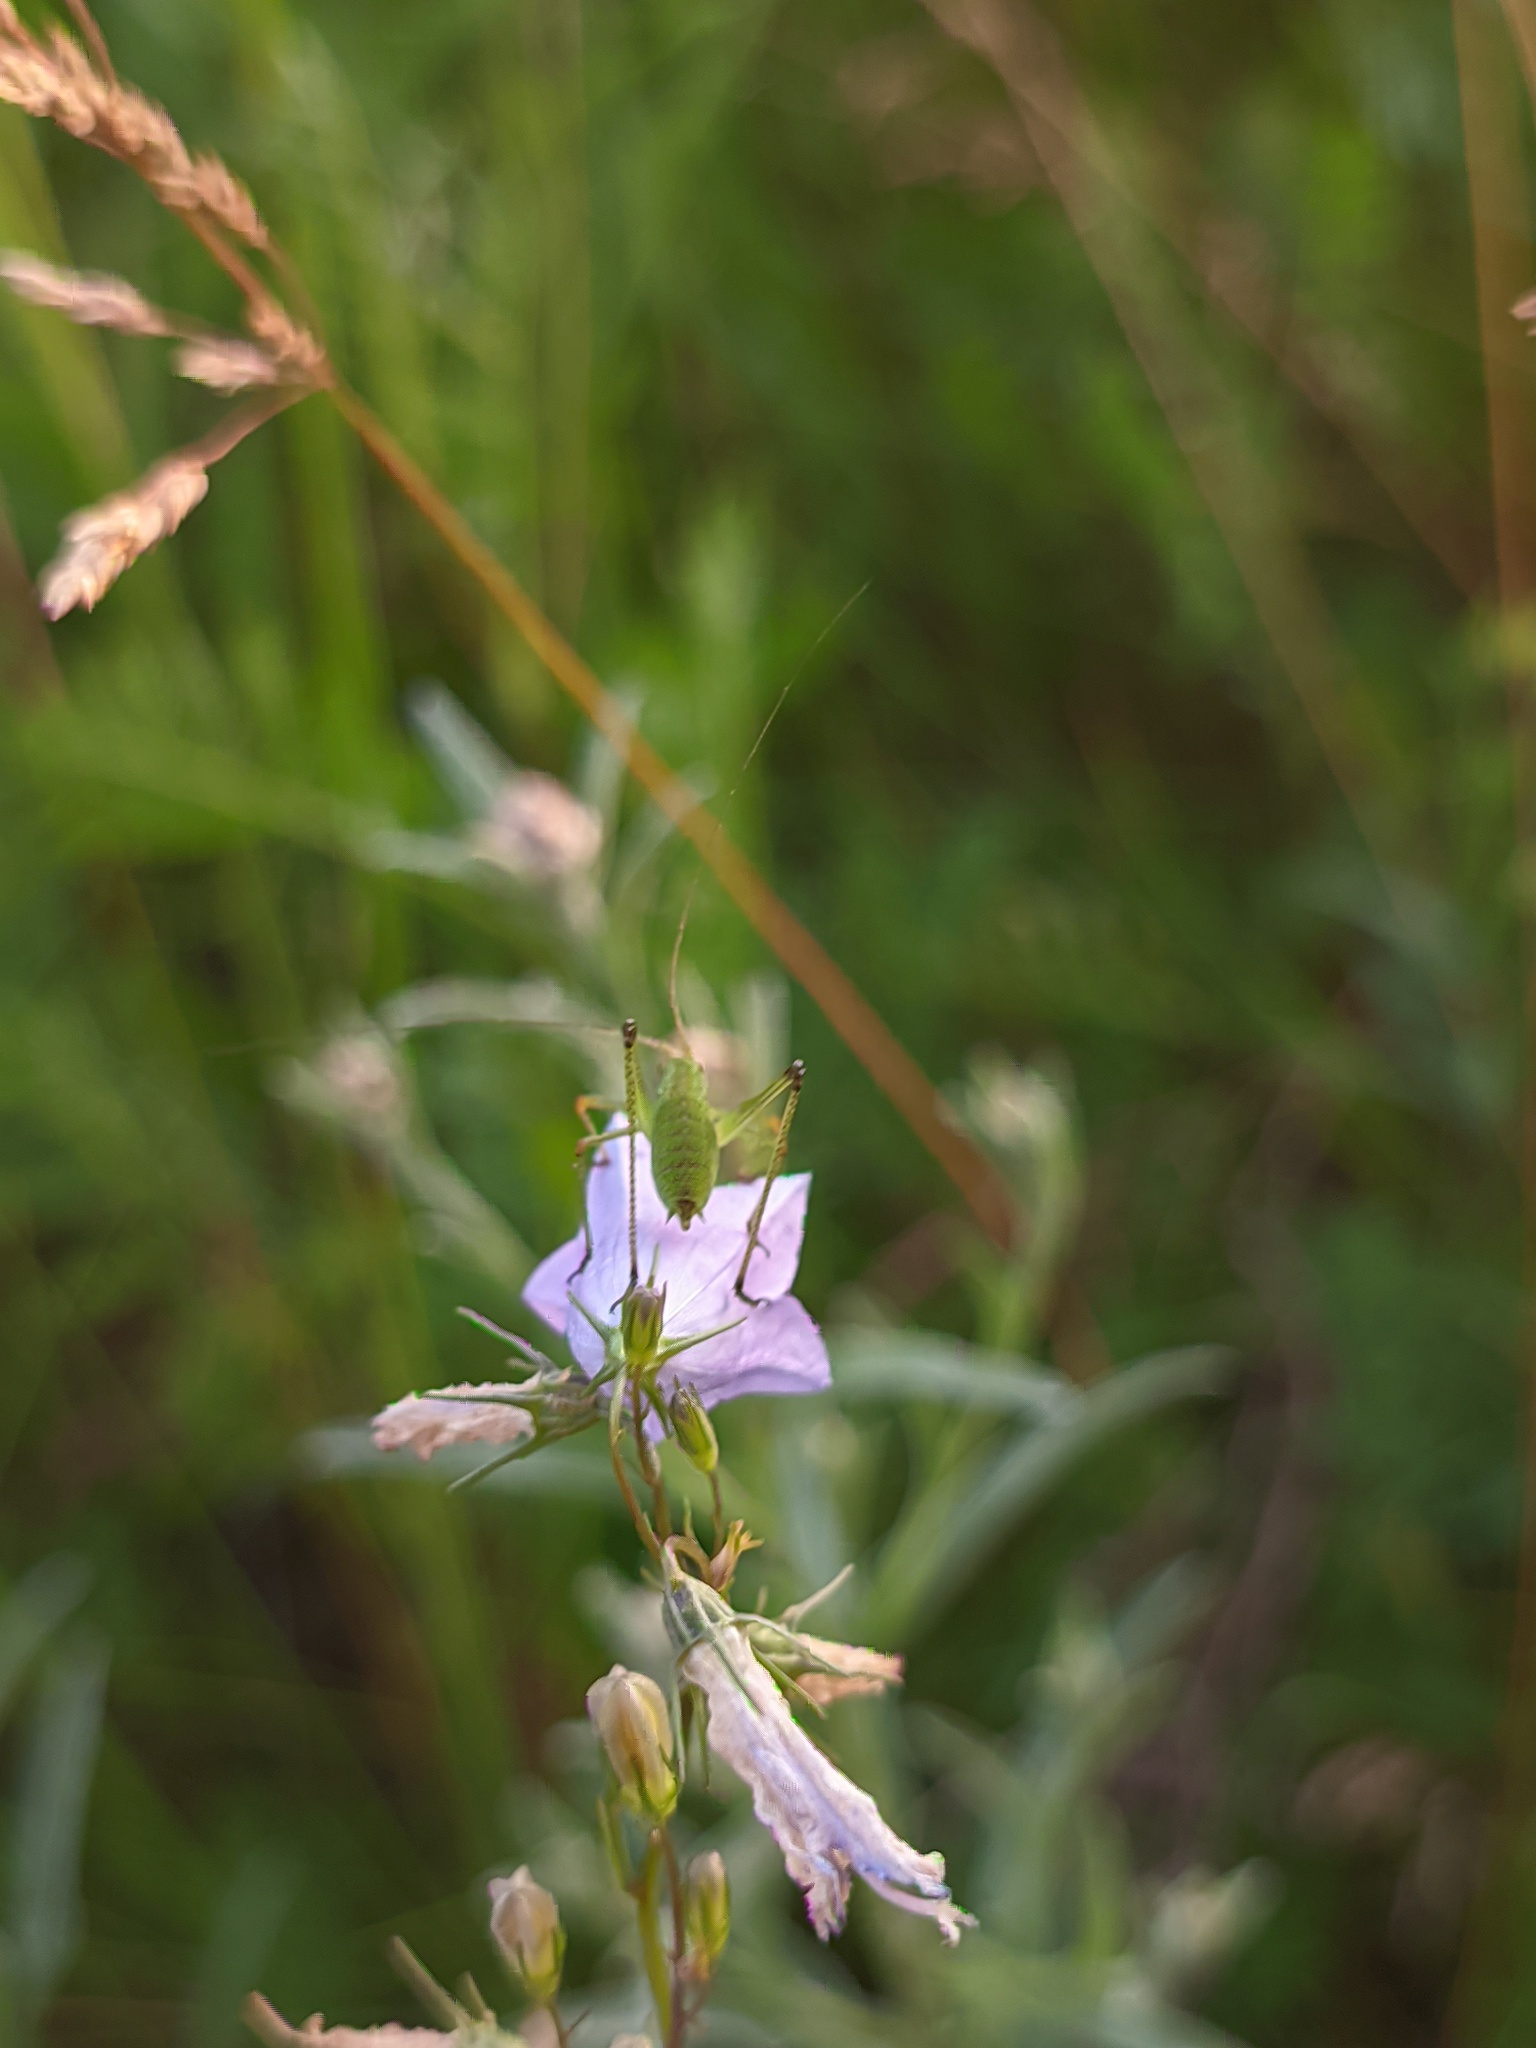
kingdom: Animalia
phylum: Arthropoda
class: Insecta
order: Orthoptera
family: Tettigoniidae
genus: Phaneroptera
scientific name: Phaneroptera falcata
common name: Sickle-bearing bush-cricket
